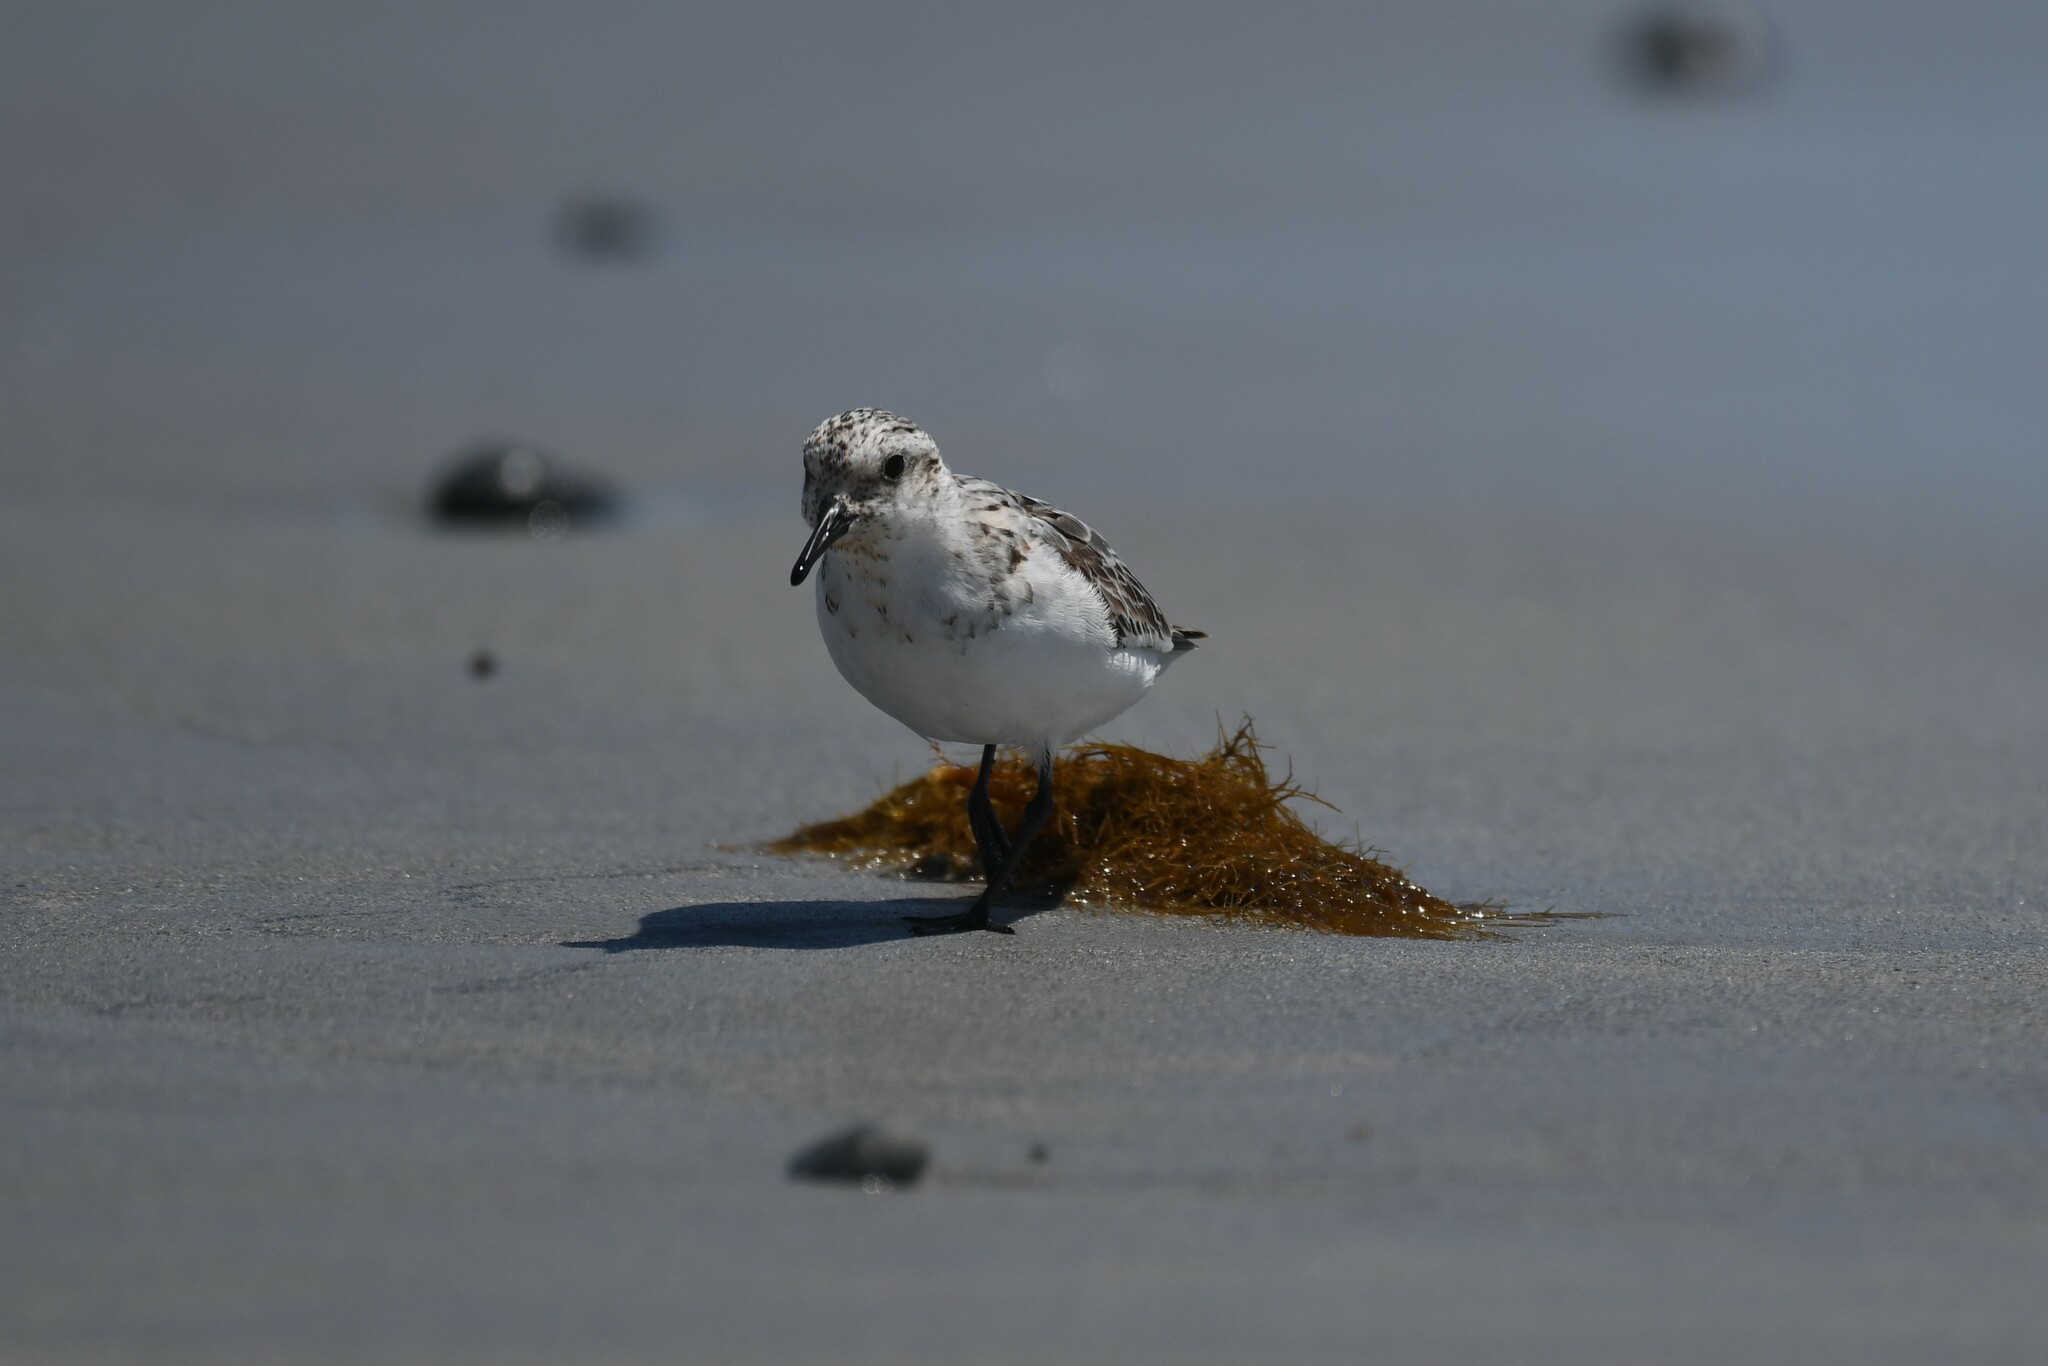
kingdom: Animalia
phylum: Chordata
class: Aves
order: Charadriiformes
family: Scolopacidae
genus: Calidris
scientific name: Calidris alba
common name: Sanderling
